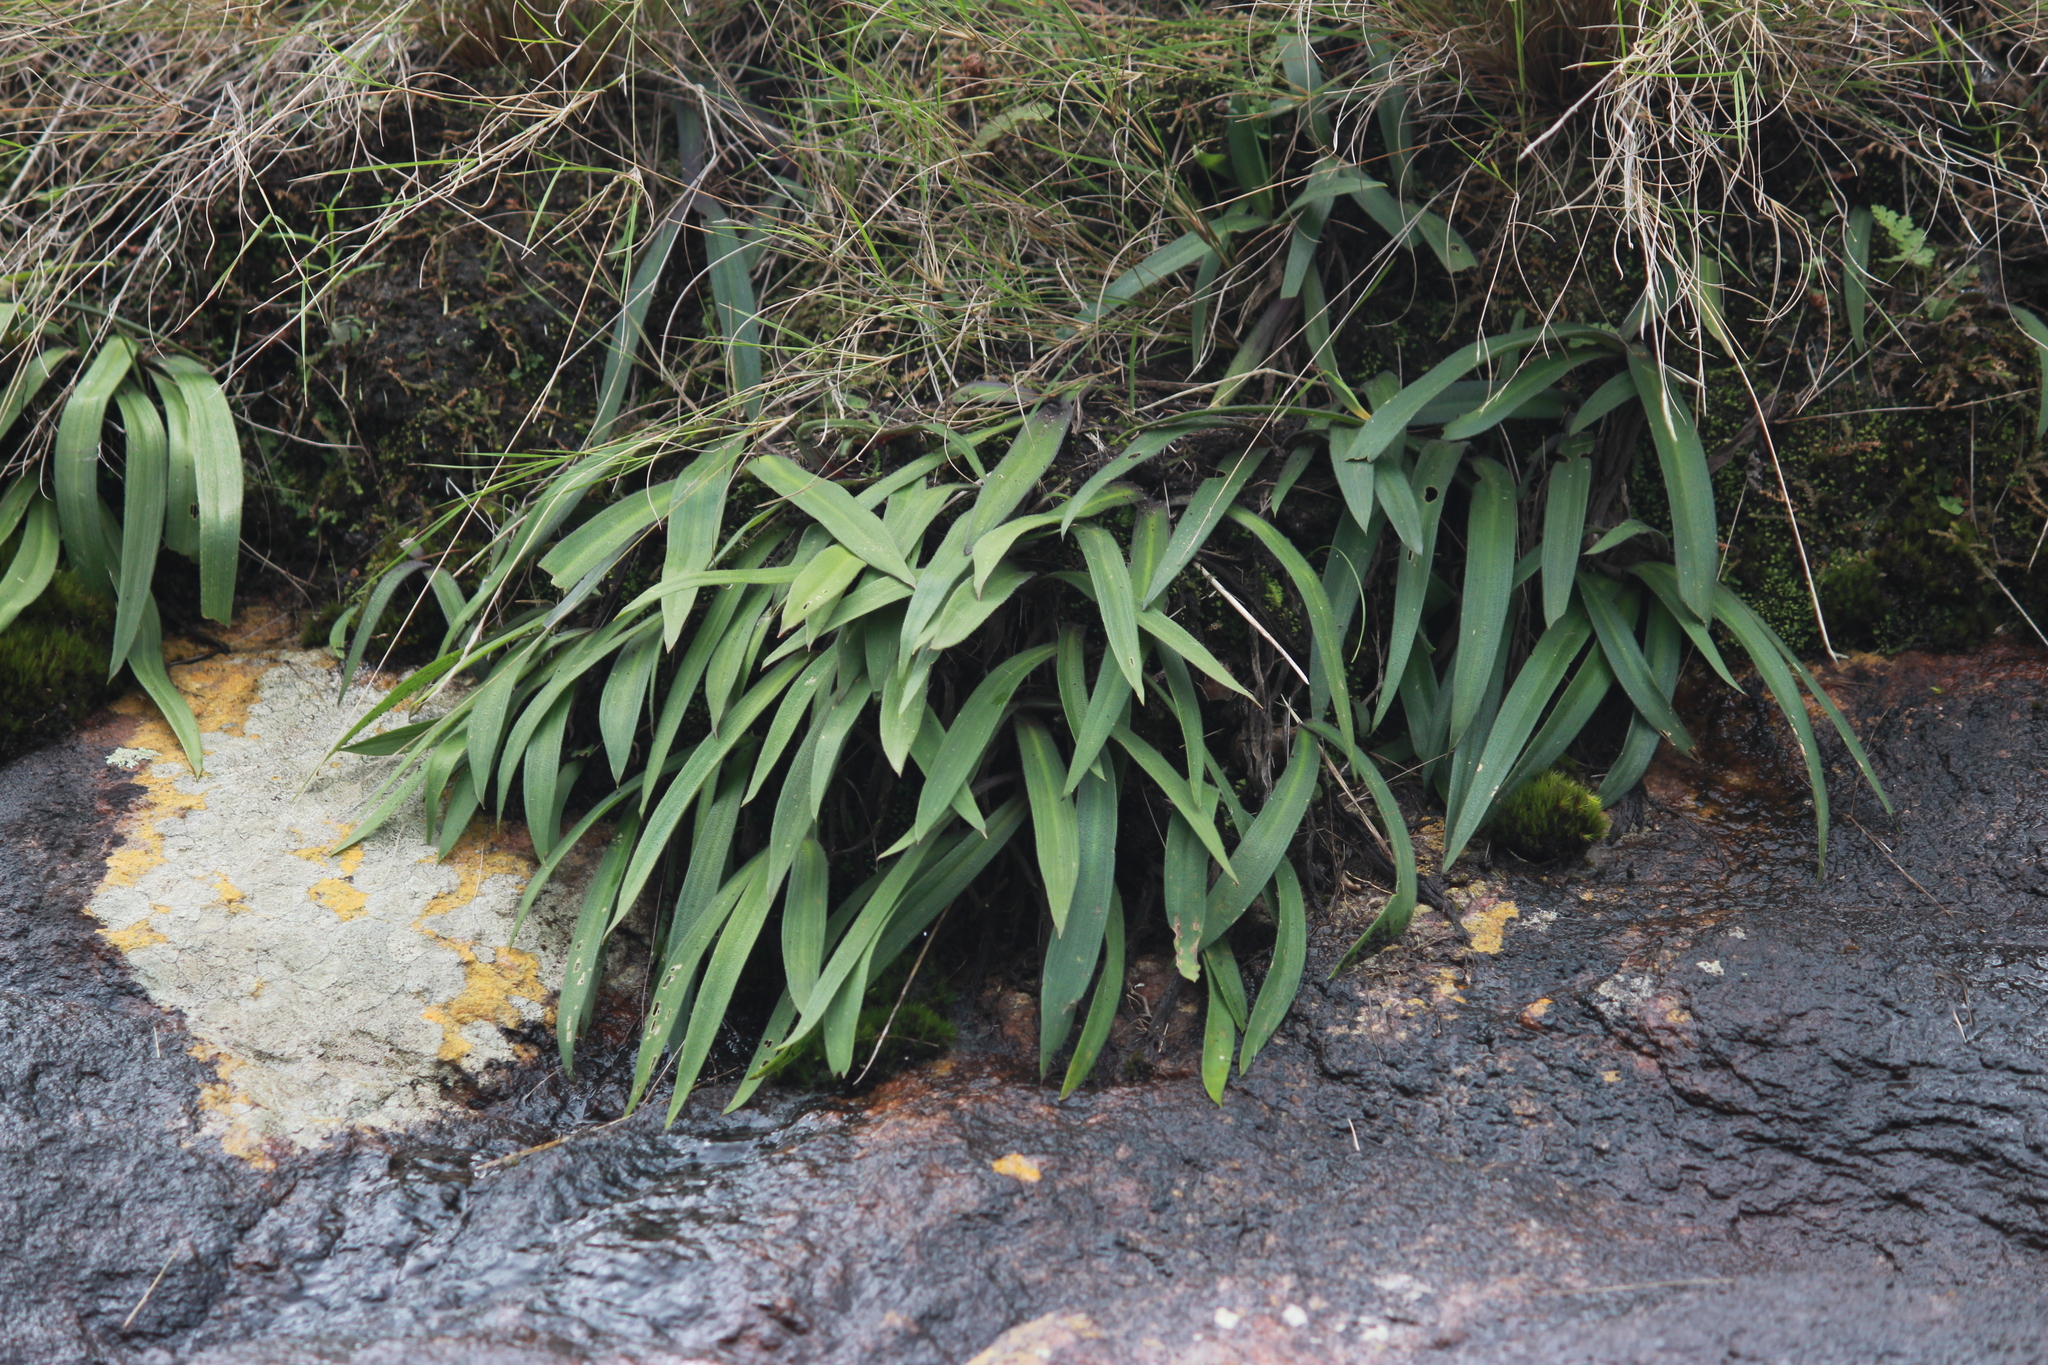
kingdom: Plantae
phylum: Tracheophyta
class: Liliopsida
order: Asparagales
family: Asparagaceae
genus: Merwilla
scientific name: Merwilla plumbea
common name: Blue-squill
